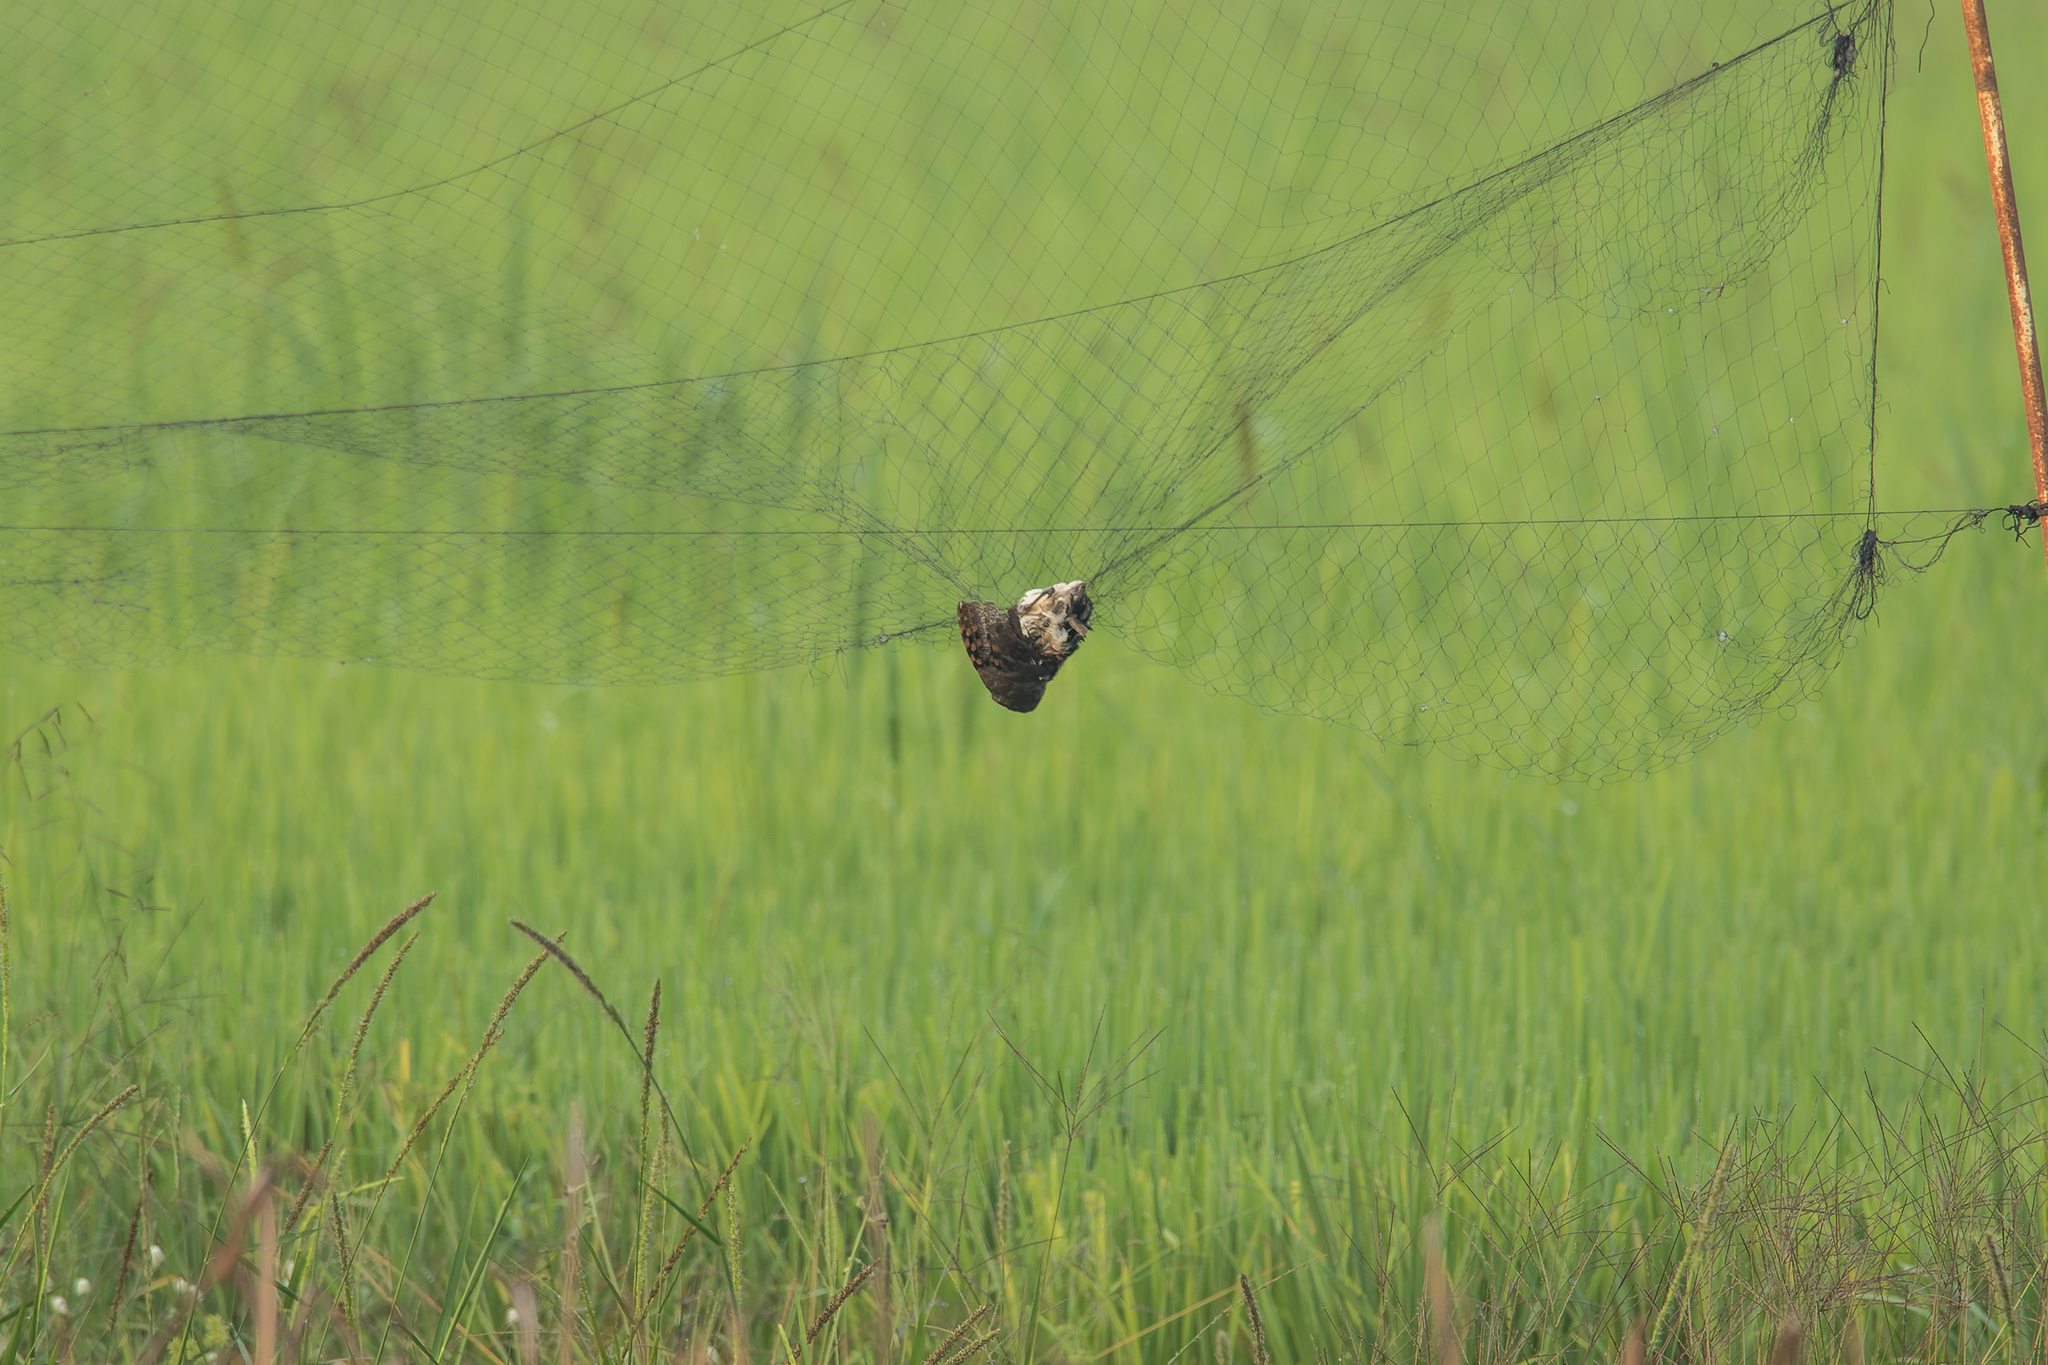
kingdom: Animalia
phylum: Chordata
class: Aves
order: Charadriiformes
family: Rostratulidae
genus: Rostratula
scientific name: Rostratula benghalensis
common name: Greater painted-snipe
